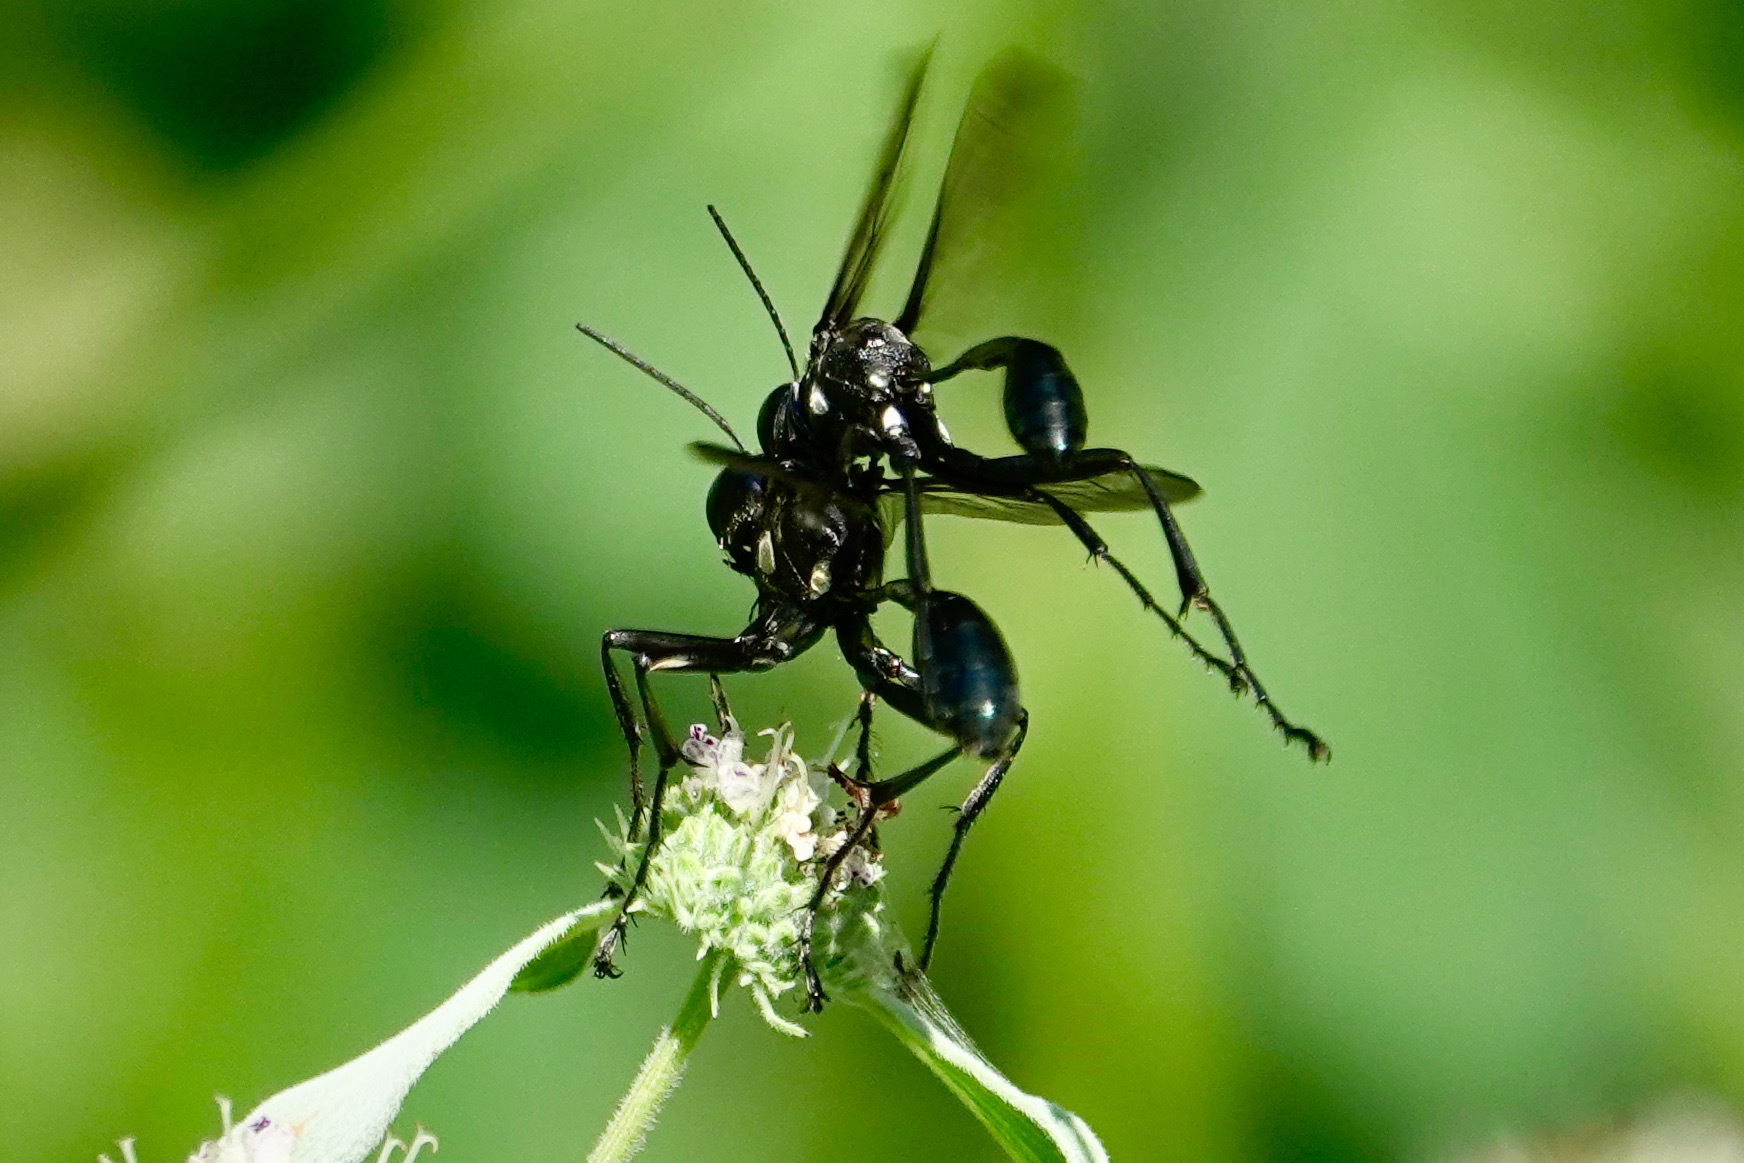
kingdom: Animalia
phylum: Arthropoda
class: Insecta
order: Hymenoptera
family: Sphecidae
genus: Eremnophila
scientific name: Eremnophila aureonotata
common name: Gold-marked thread-waisted wasp
